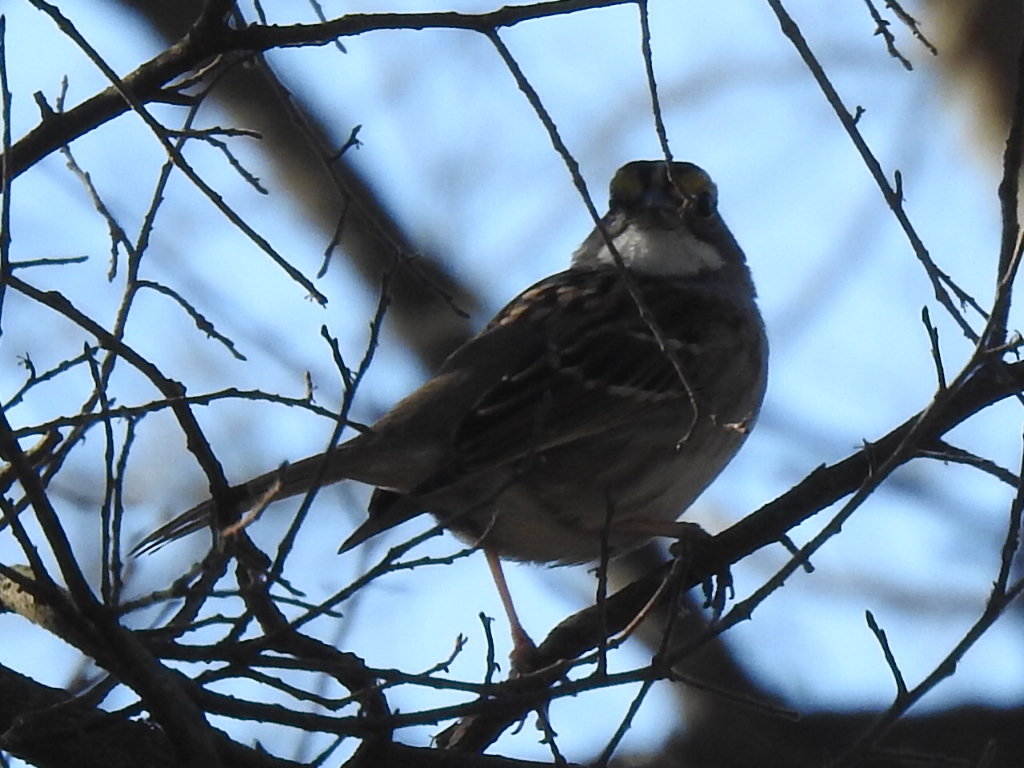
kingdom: Animalia
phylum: Chordata
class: Aves
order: Passeriformes
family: Passerellidae
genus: Zonotrichia
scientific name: Zonotrichia albicollis
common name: White-throated sparrow
